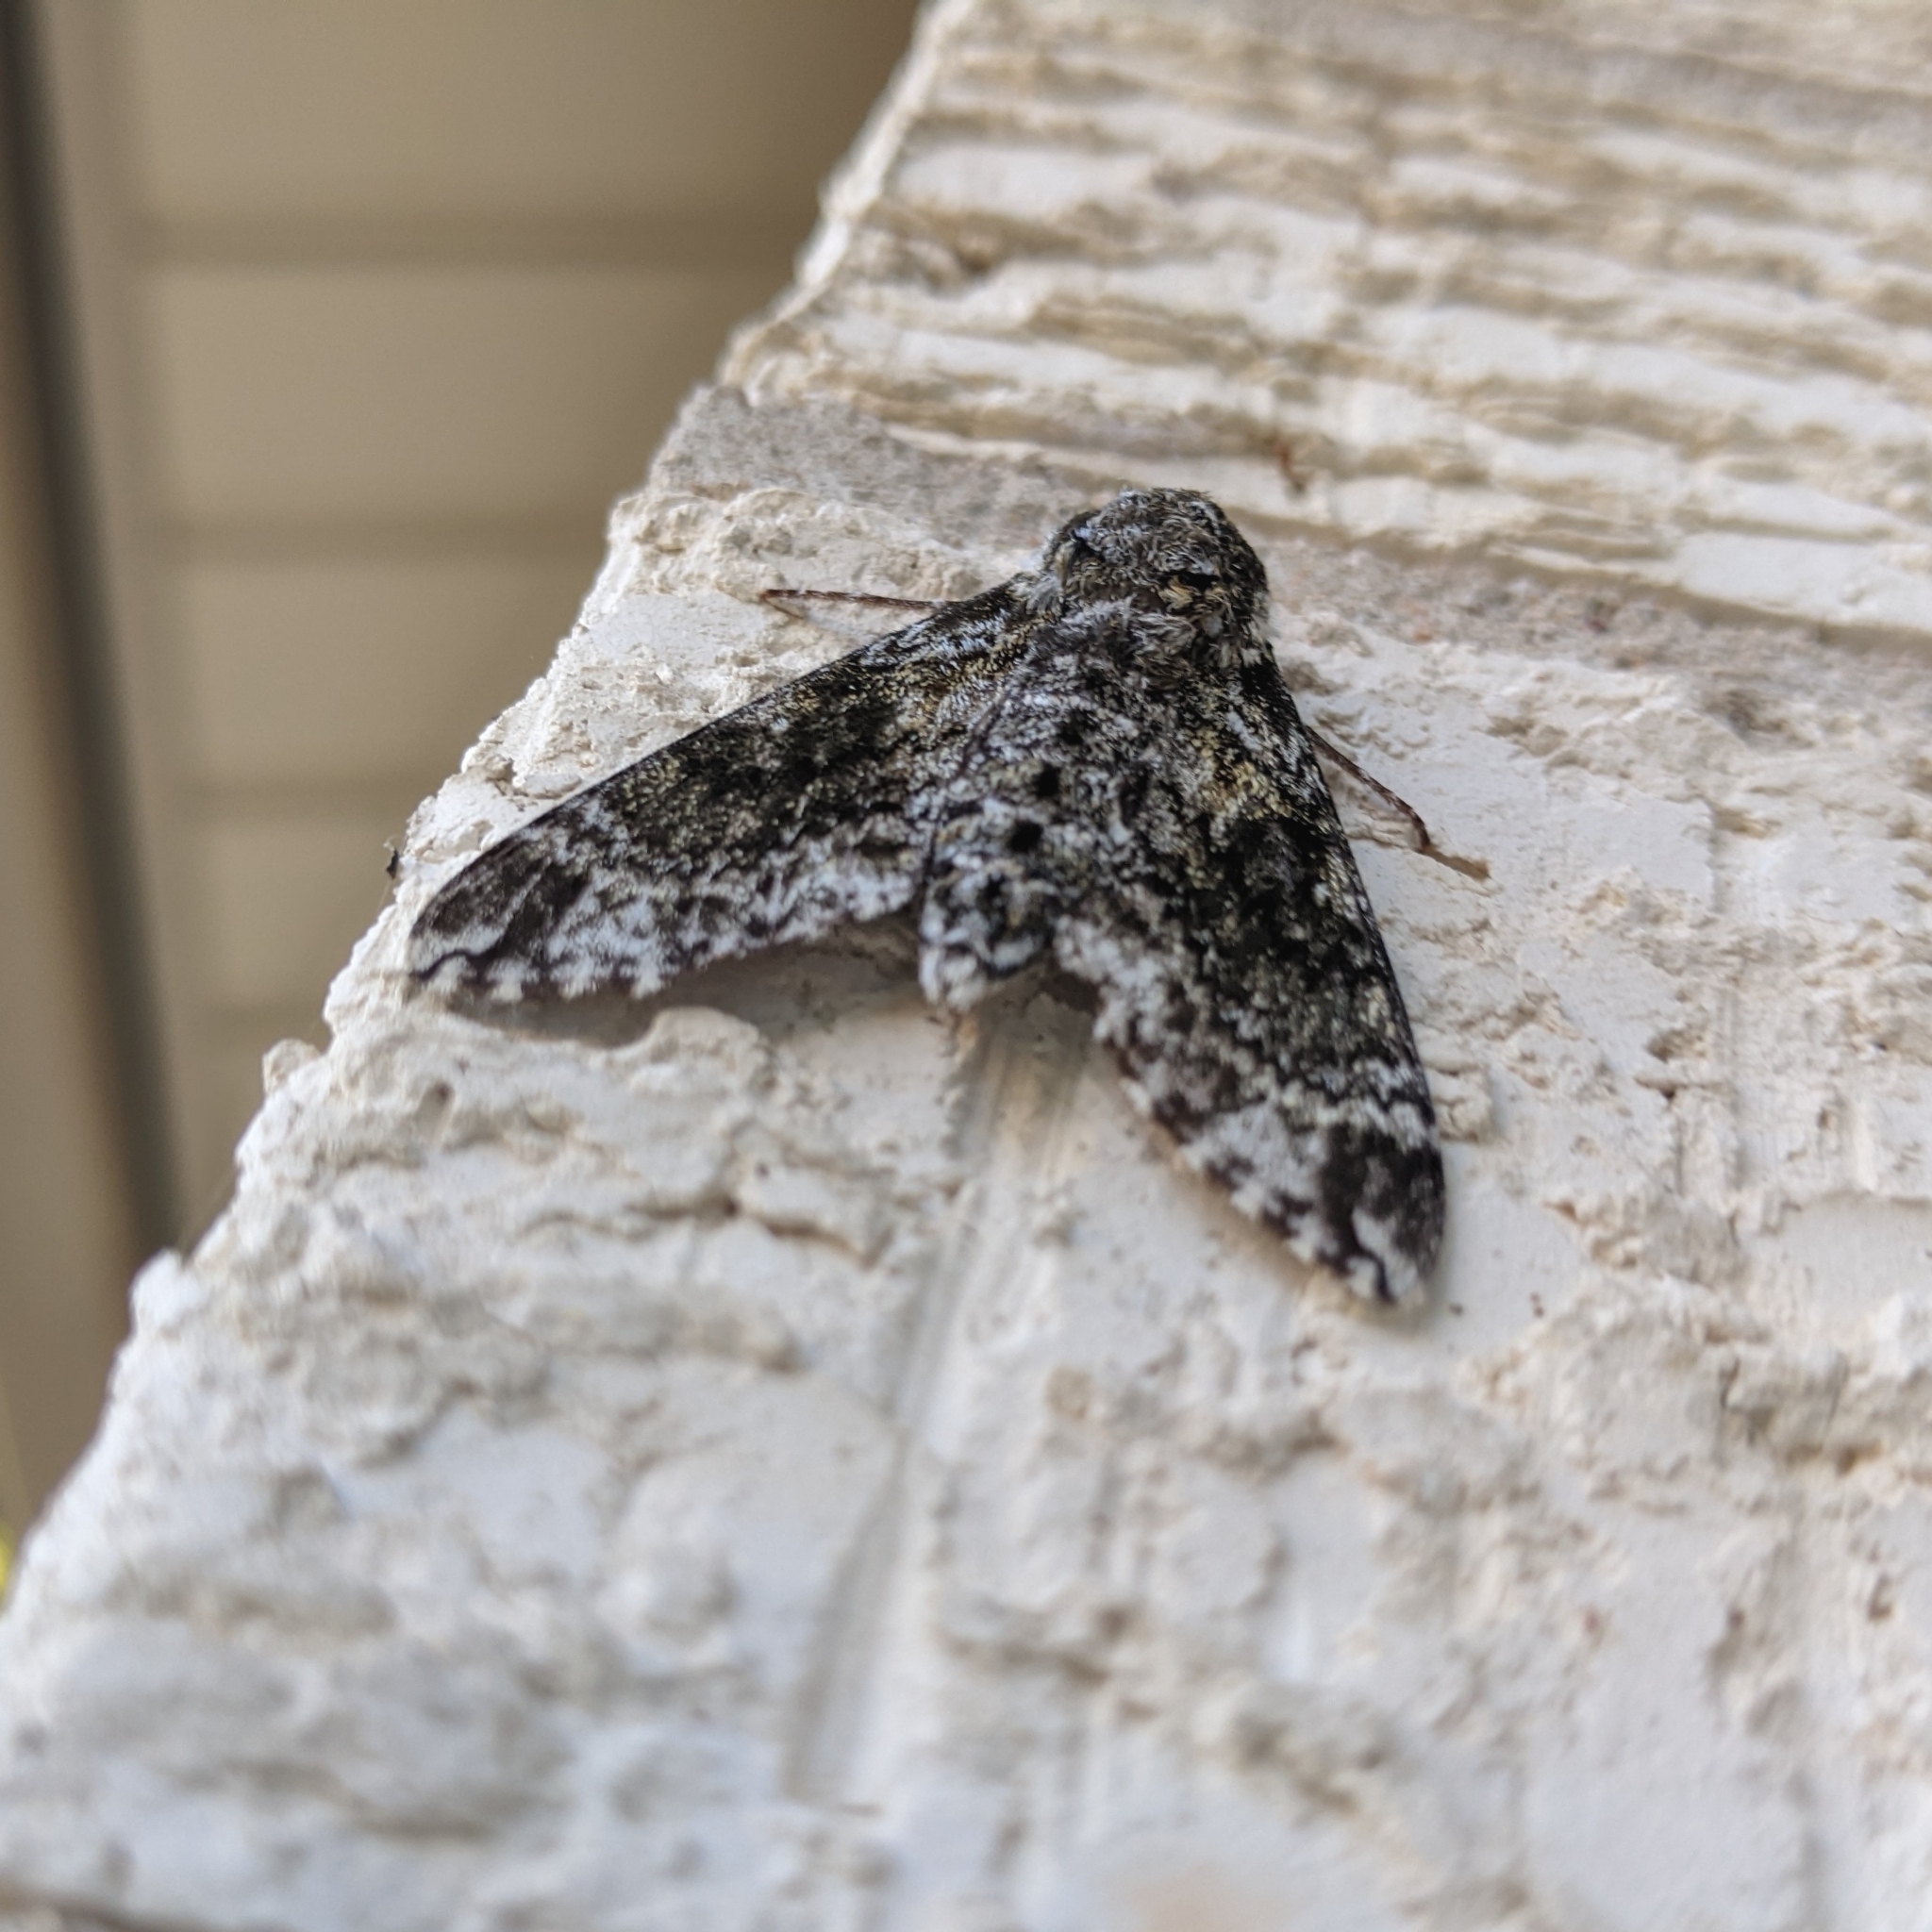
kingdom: Animalia
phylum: Arthropoda
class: Insecta
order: Lepidoptera
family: Sphingidae
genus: Dolba
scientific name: Dolba hyloeus
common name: Pawpaw sphinx
